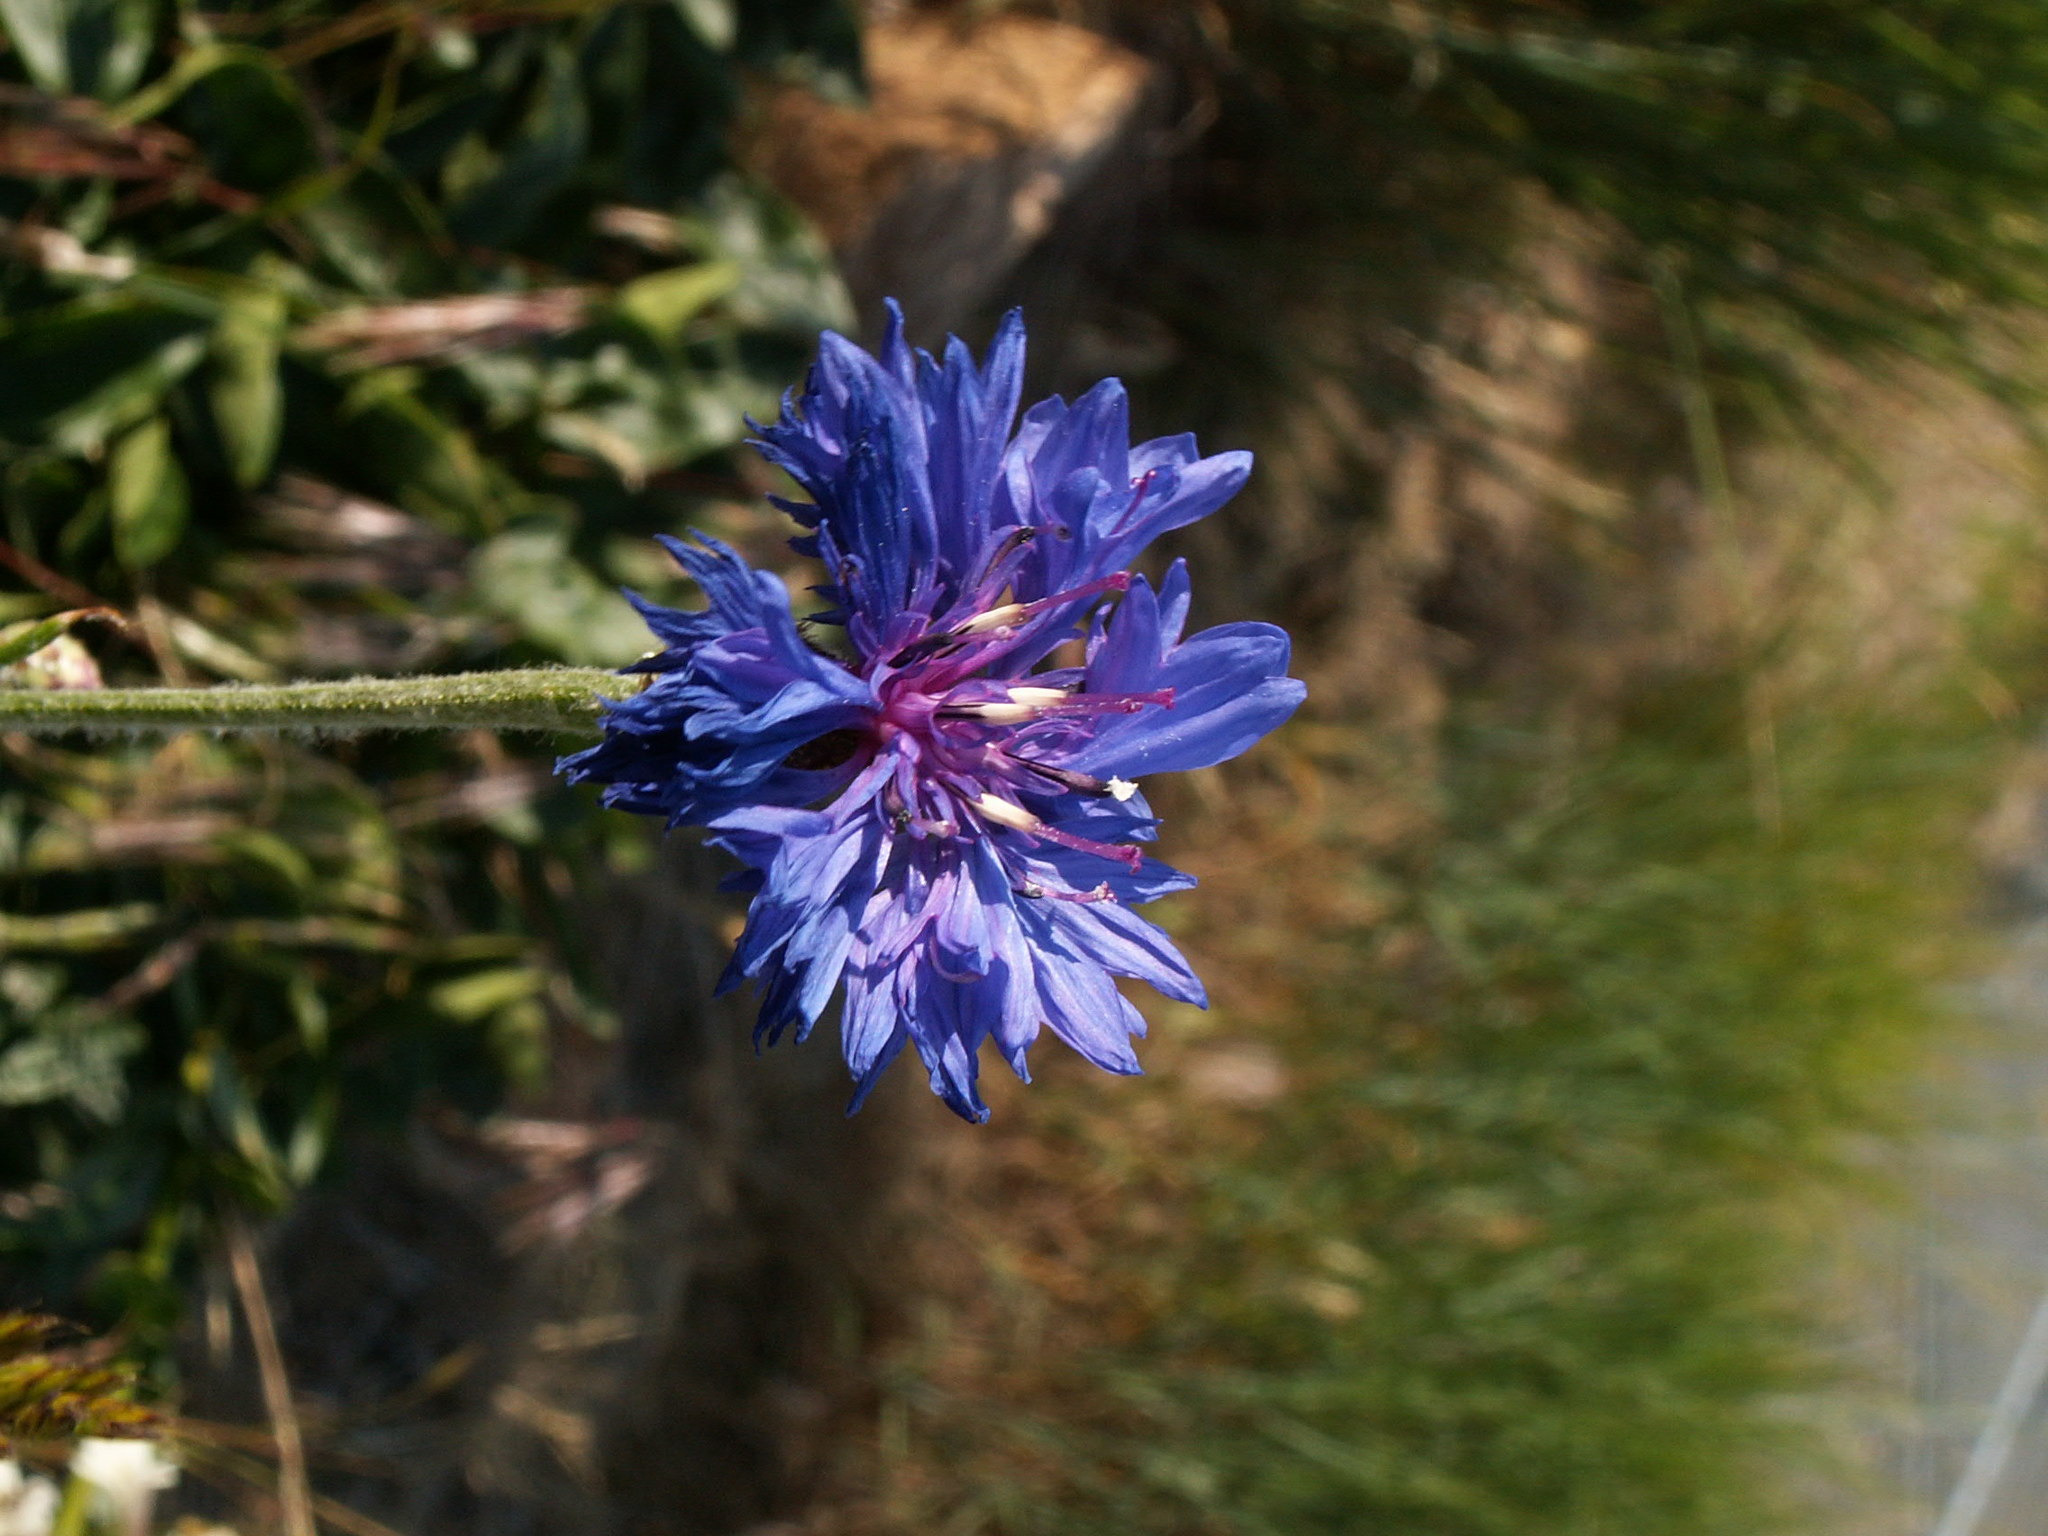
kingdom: Plantae
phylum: Tracheophyta
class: Magnoliopsida
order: Asterales
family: Asteraceae
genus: Centaurea
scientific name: Centaurea cyanus
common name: Cornflower
